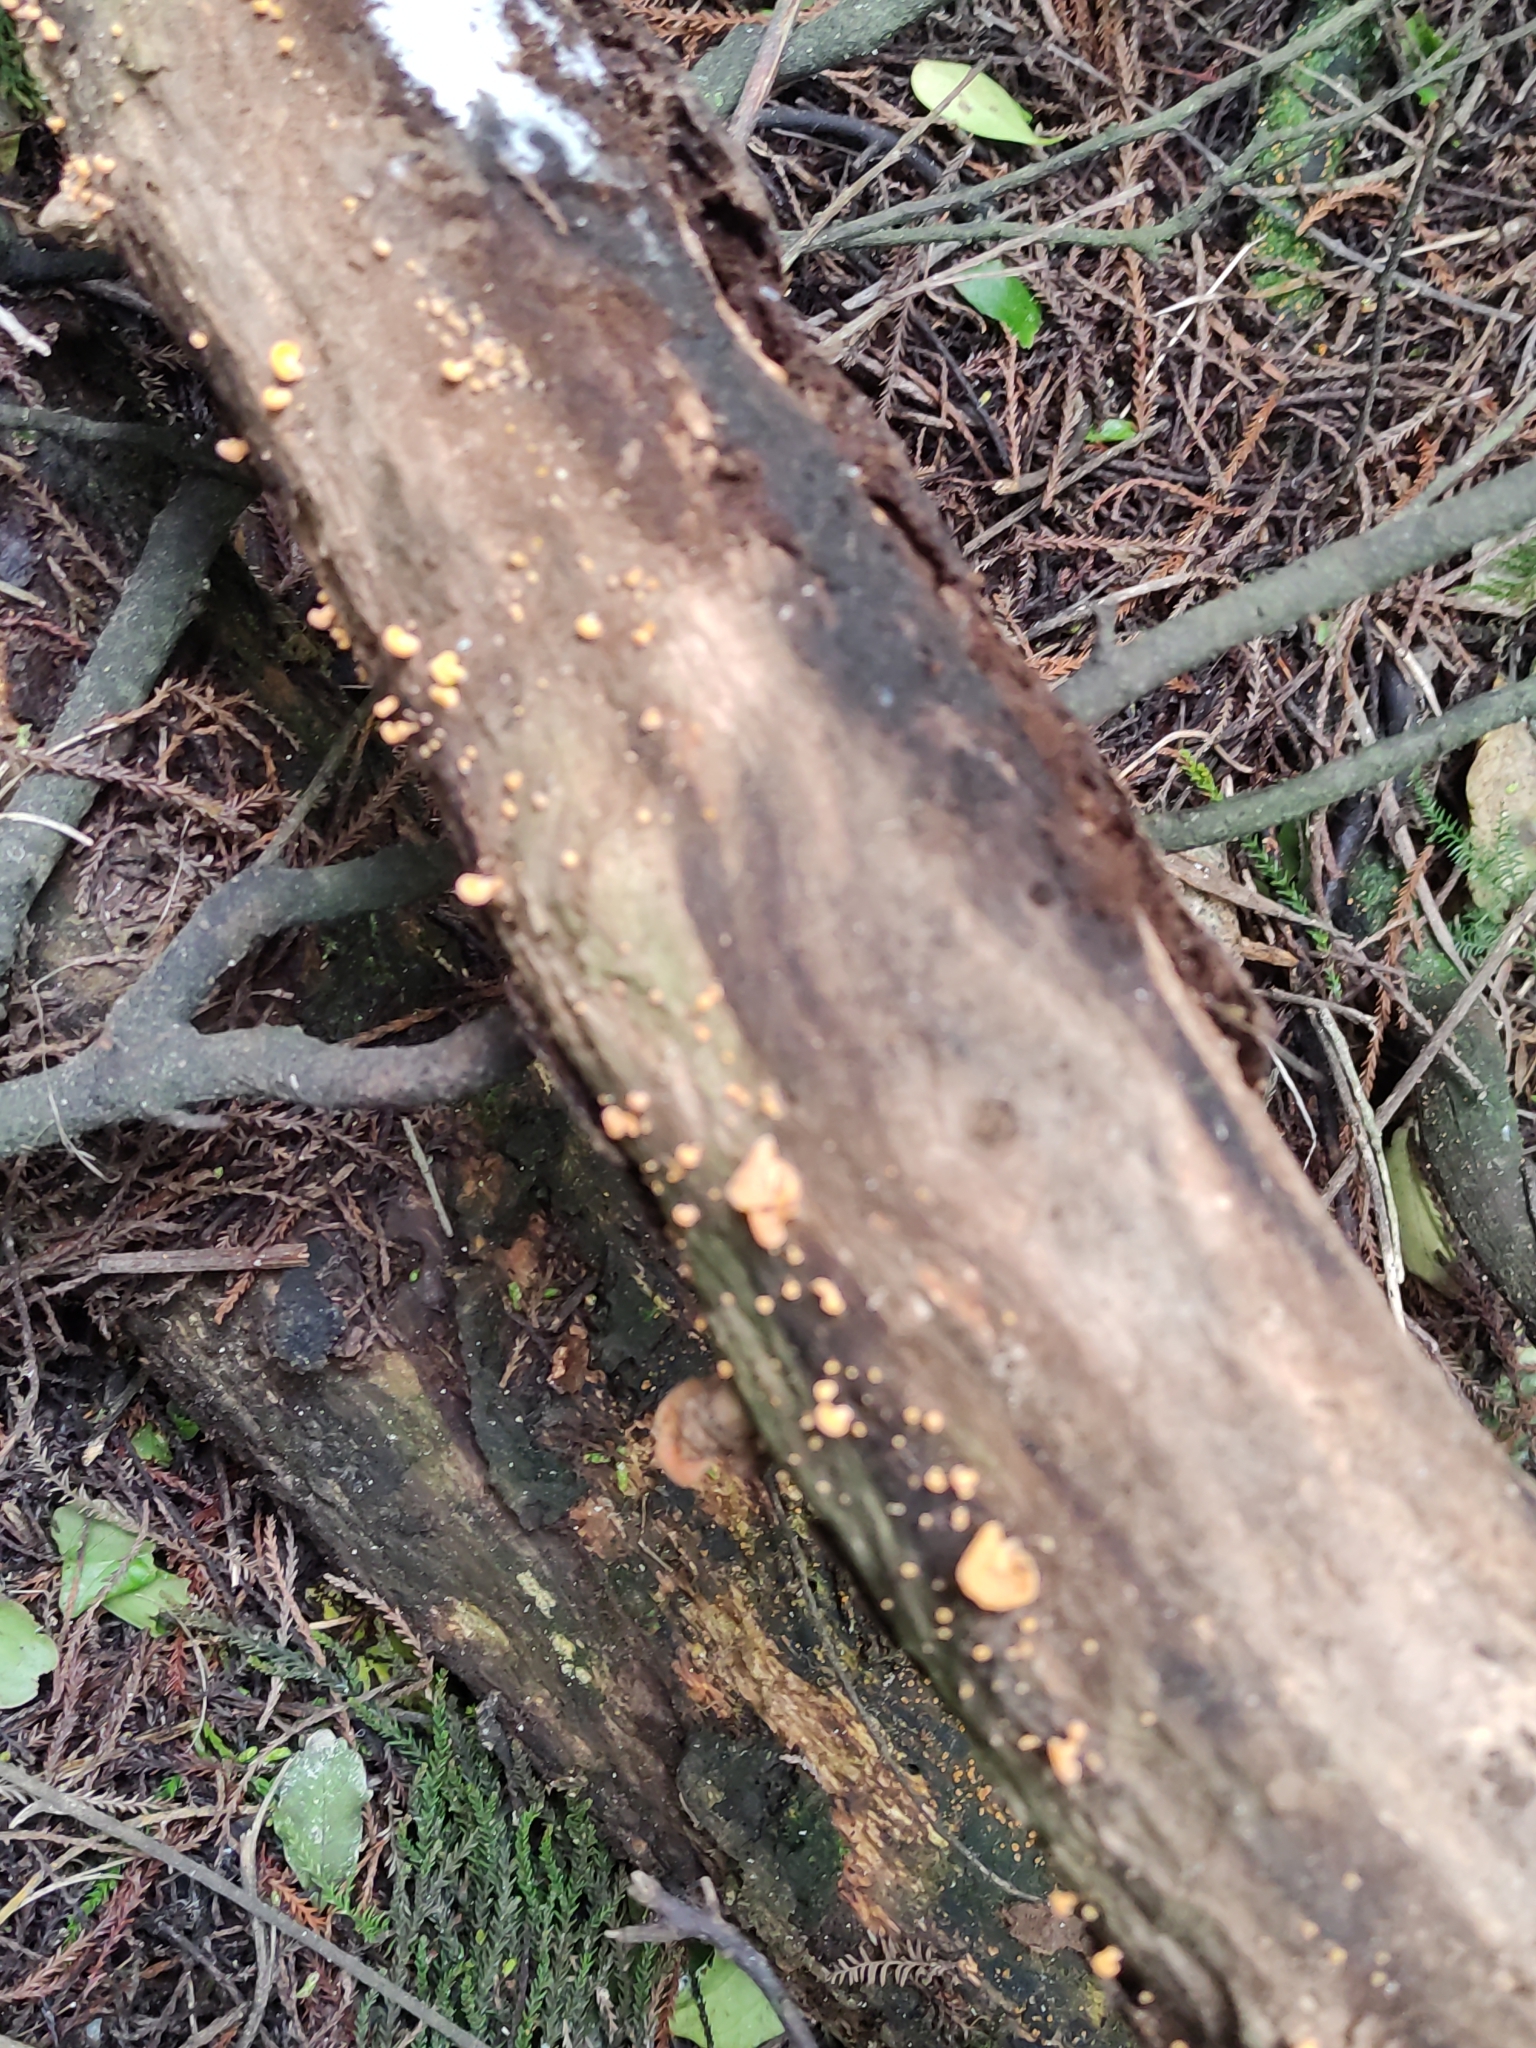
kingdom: Fungi
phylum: Basidiomycota
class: Agaricomycetes
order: Agaricales
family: Mycenaceae
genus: Favolaschia
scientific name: Favolaschia claudopus
